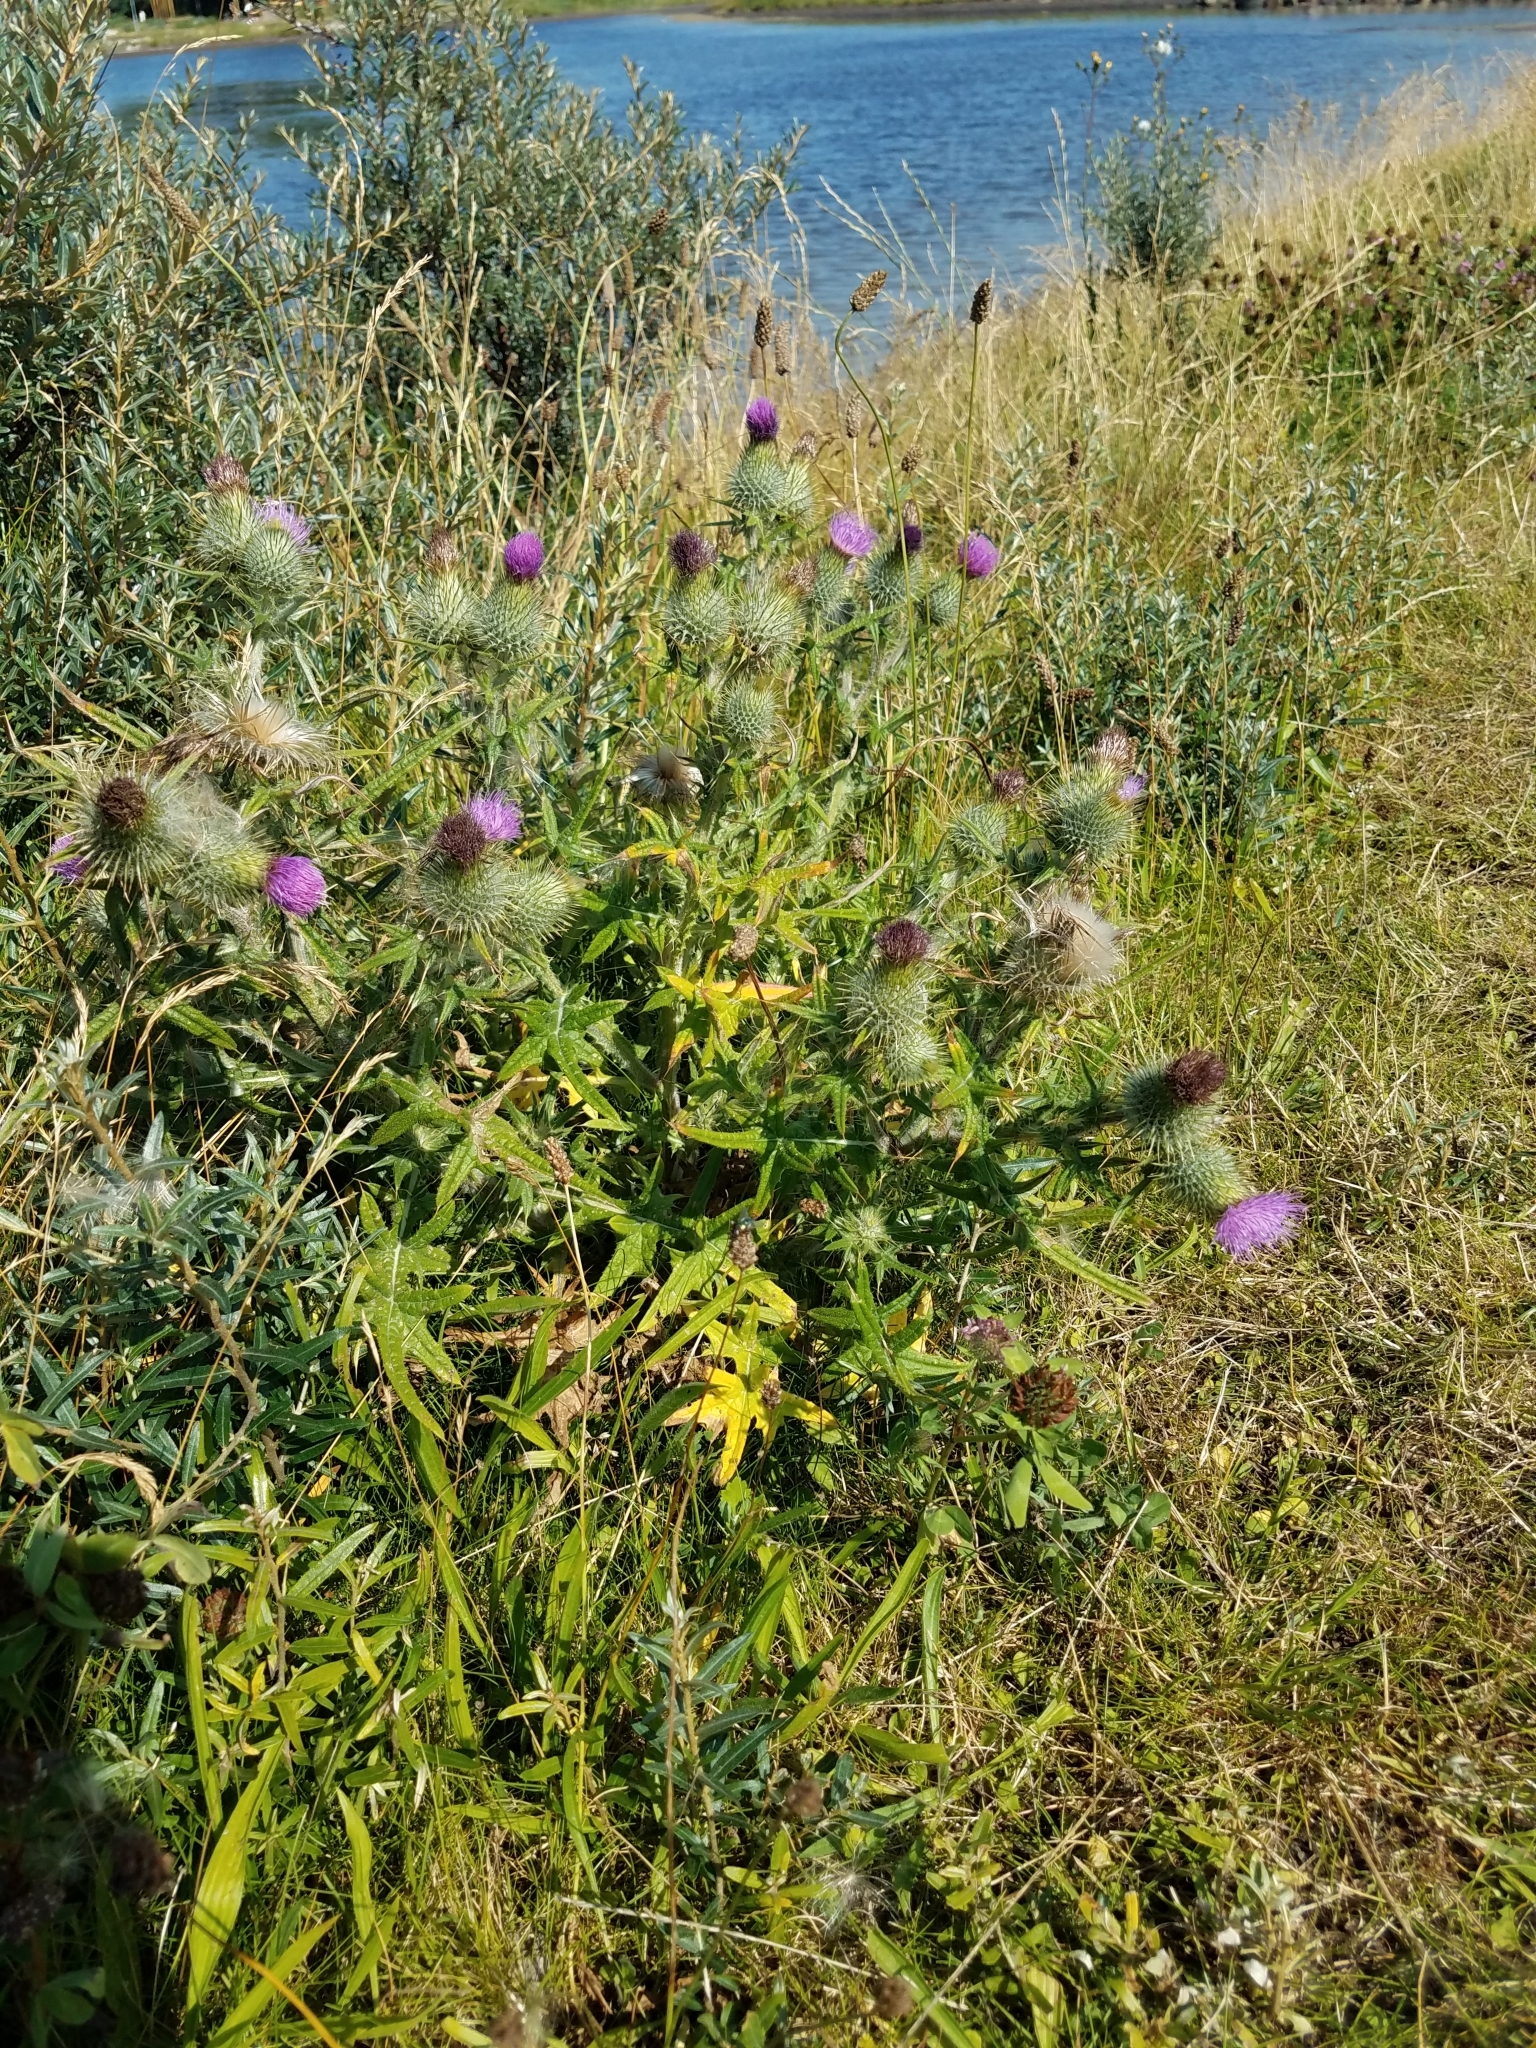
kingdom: Plantae
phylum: Tracheophyta
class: Magnoliopsida
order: Asterales
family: Asteraceae
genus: Cirsium
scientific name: Cirsium vulgare
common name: Bull thistle
